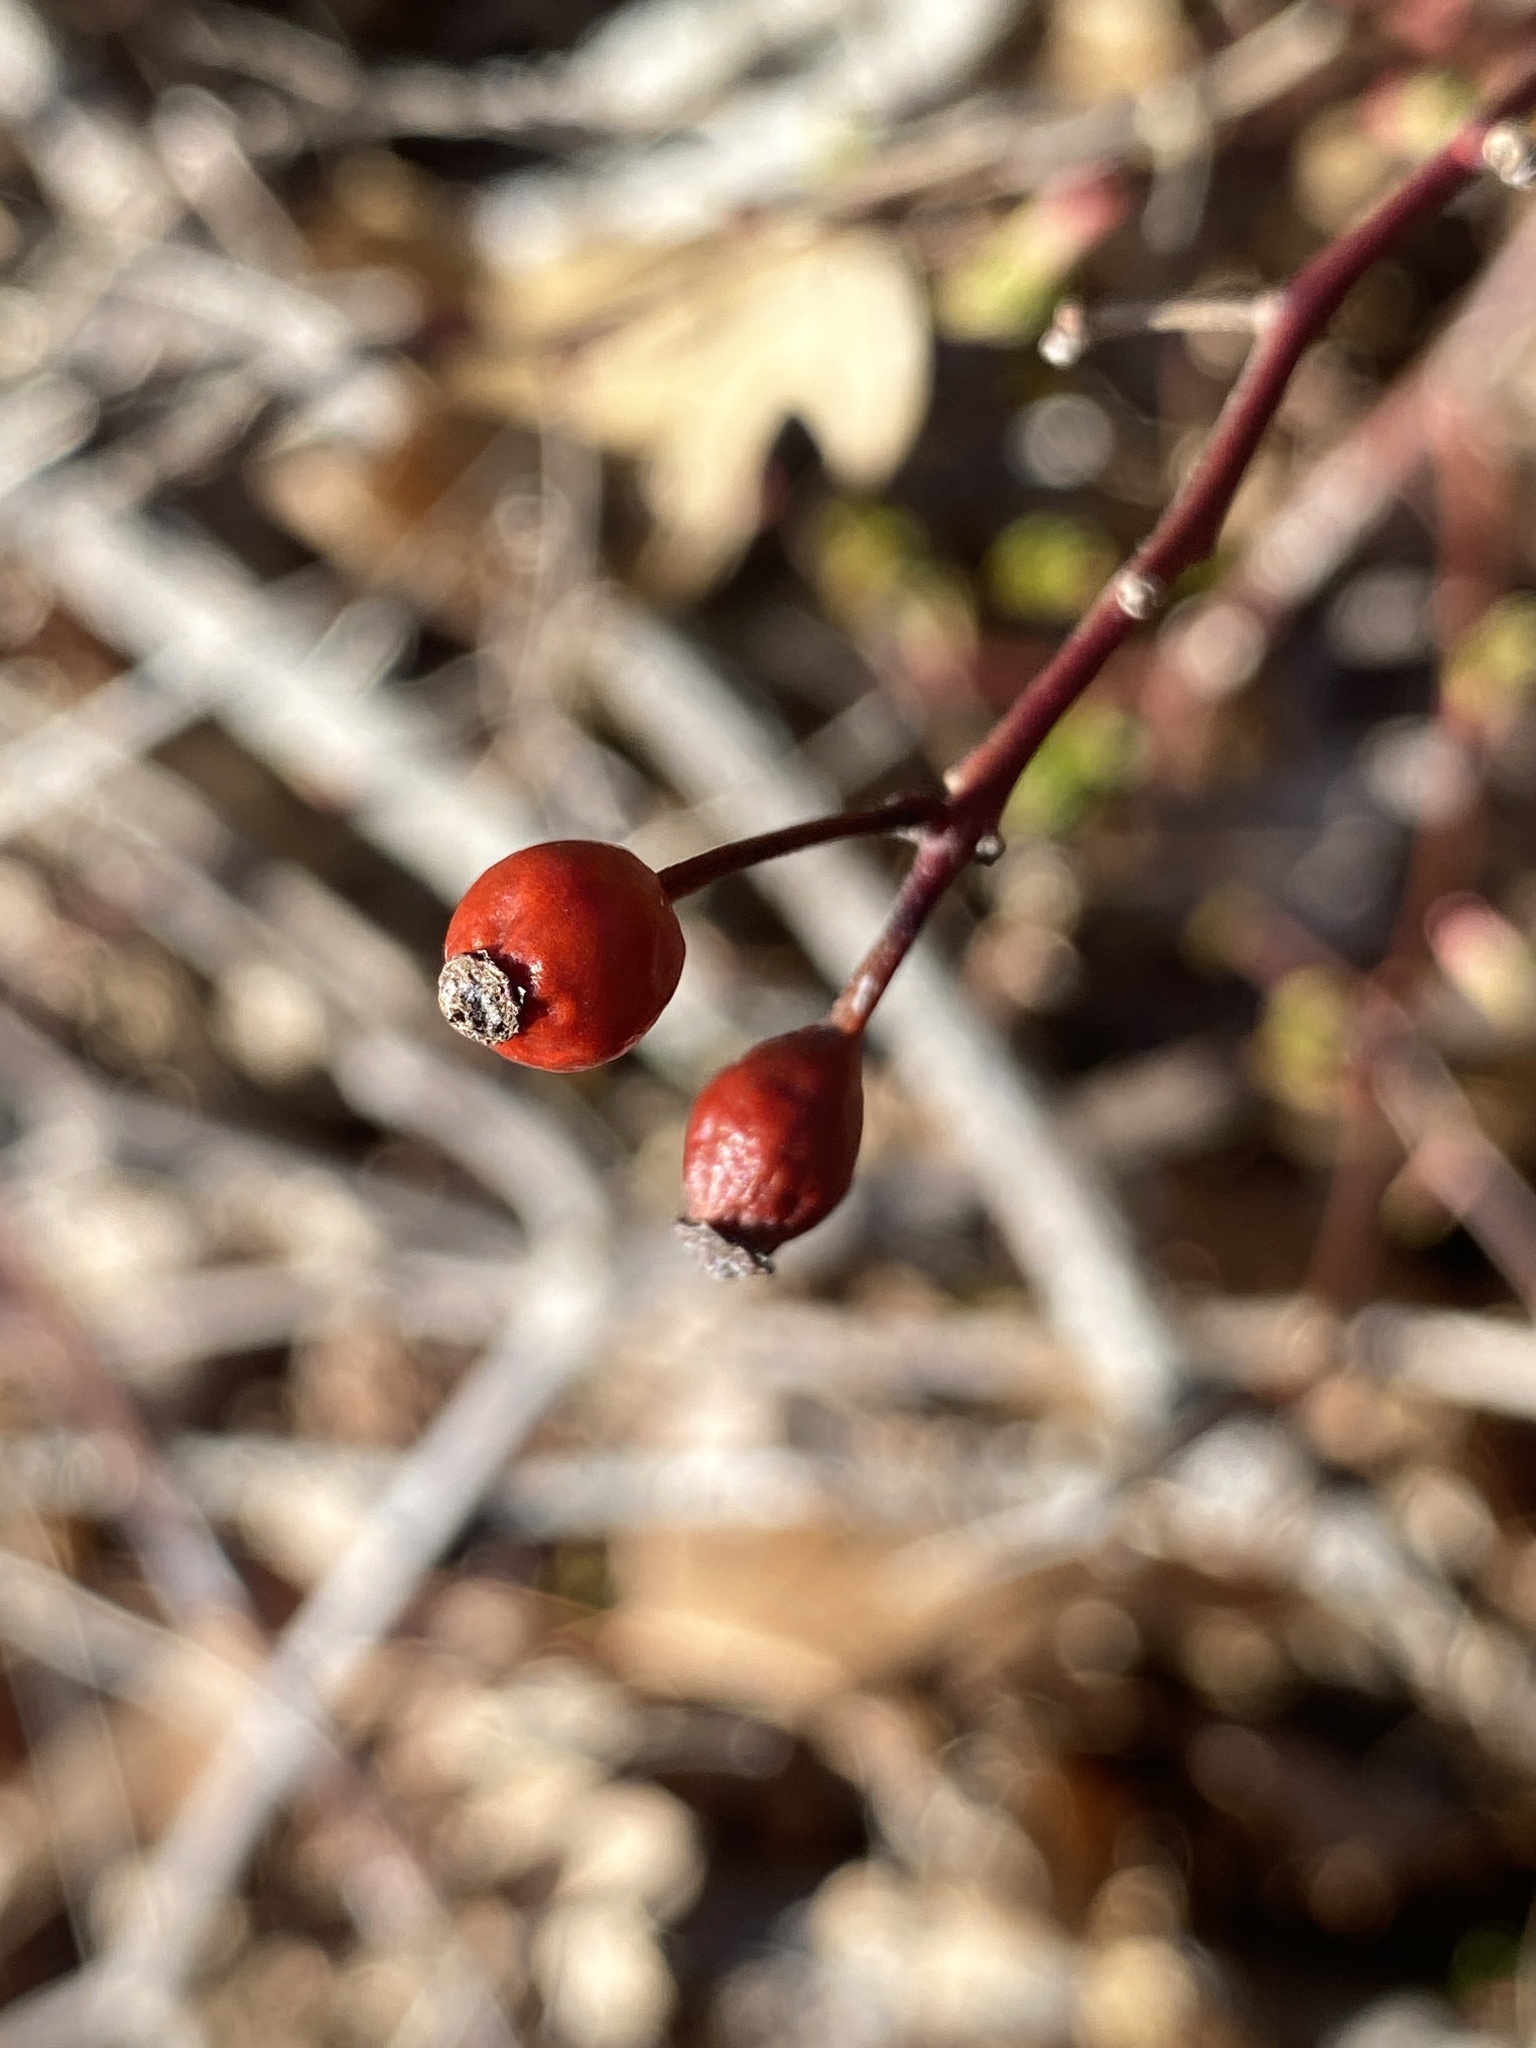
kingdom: Plantae
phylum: Tracheophyta
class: Magnoliopsida
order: Rosales
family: Rosaceae
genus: Rosa
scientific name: Rosa multiflora
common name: Multiflora rose
